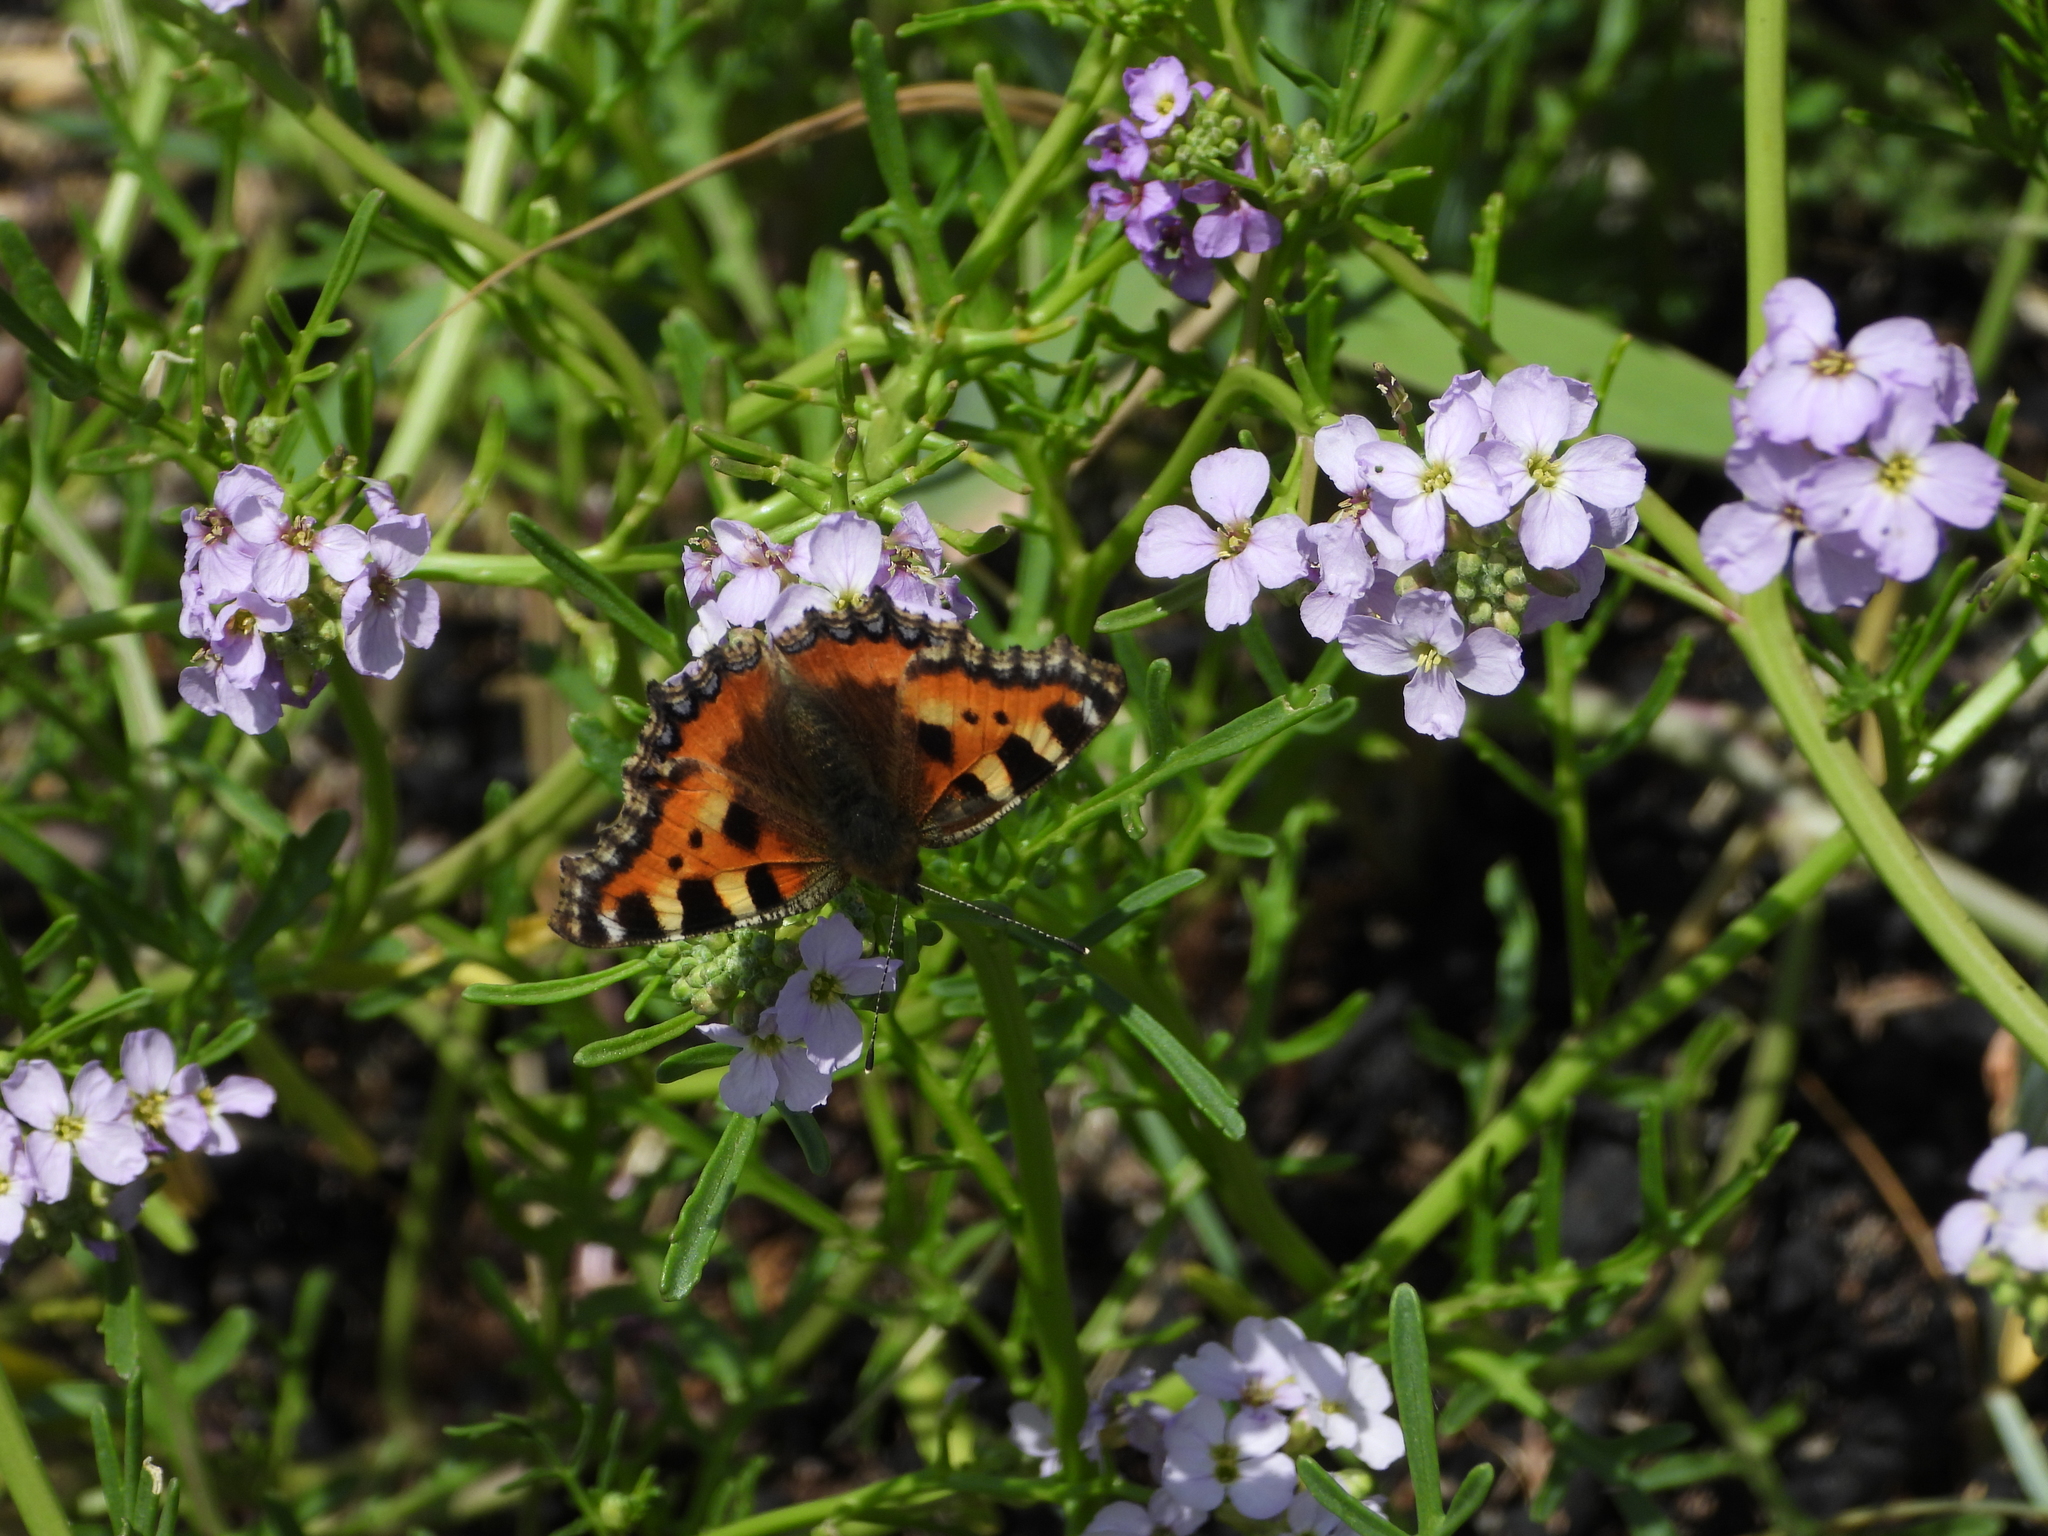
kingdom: Animalia
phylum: Arthropoda
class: Insecta
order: Lepidoptera
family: Nymphalidae
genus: Aglais
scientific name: Aglais urticae
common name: Small tortoiseshell
